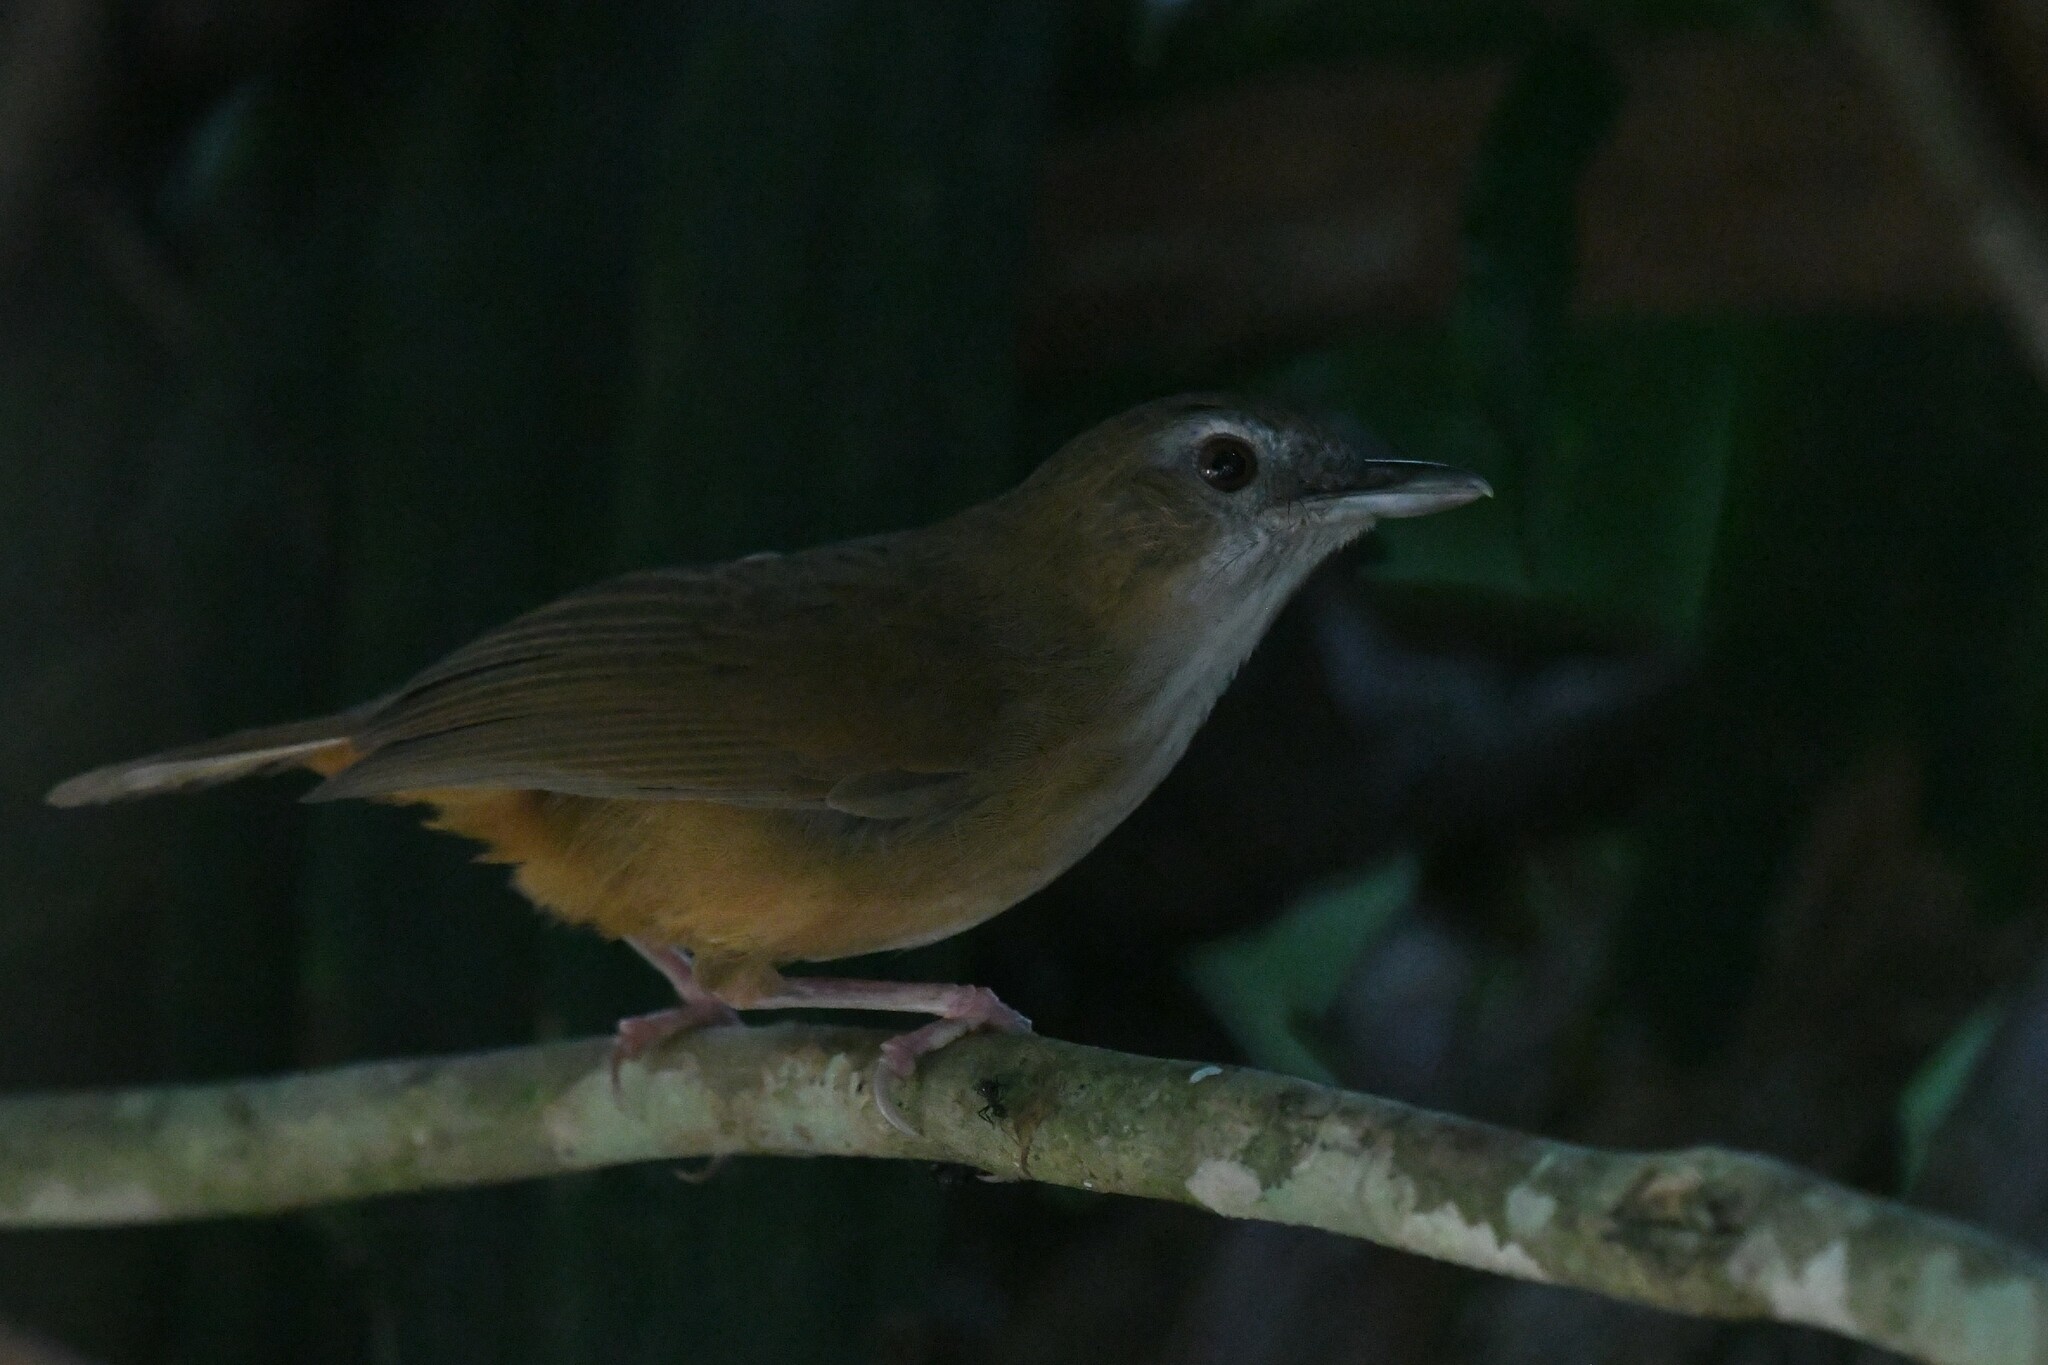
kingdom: Animalia
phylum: Chordata
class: Aves
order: Passeriformes
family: Pellorneidae
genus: Malacocincla
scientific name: Malacocincla abbotti
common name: Abbott's babbler
